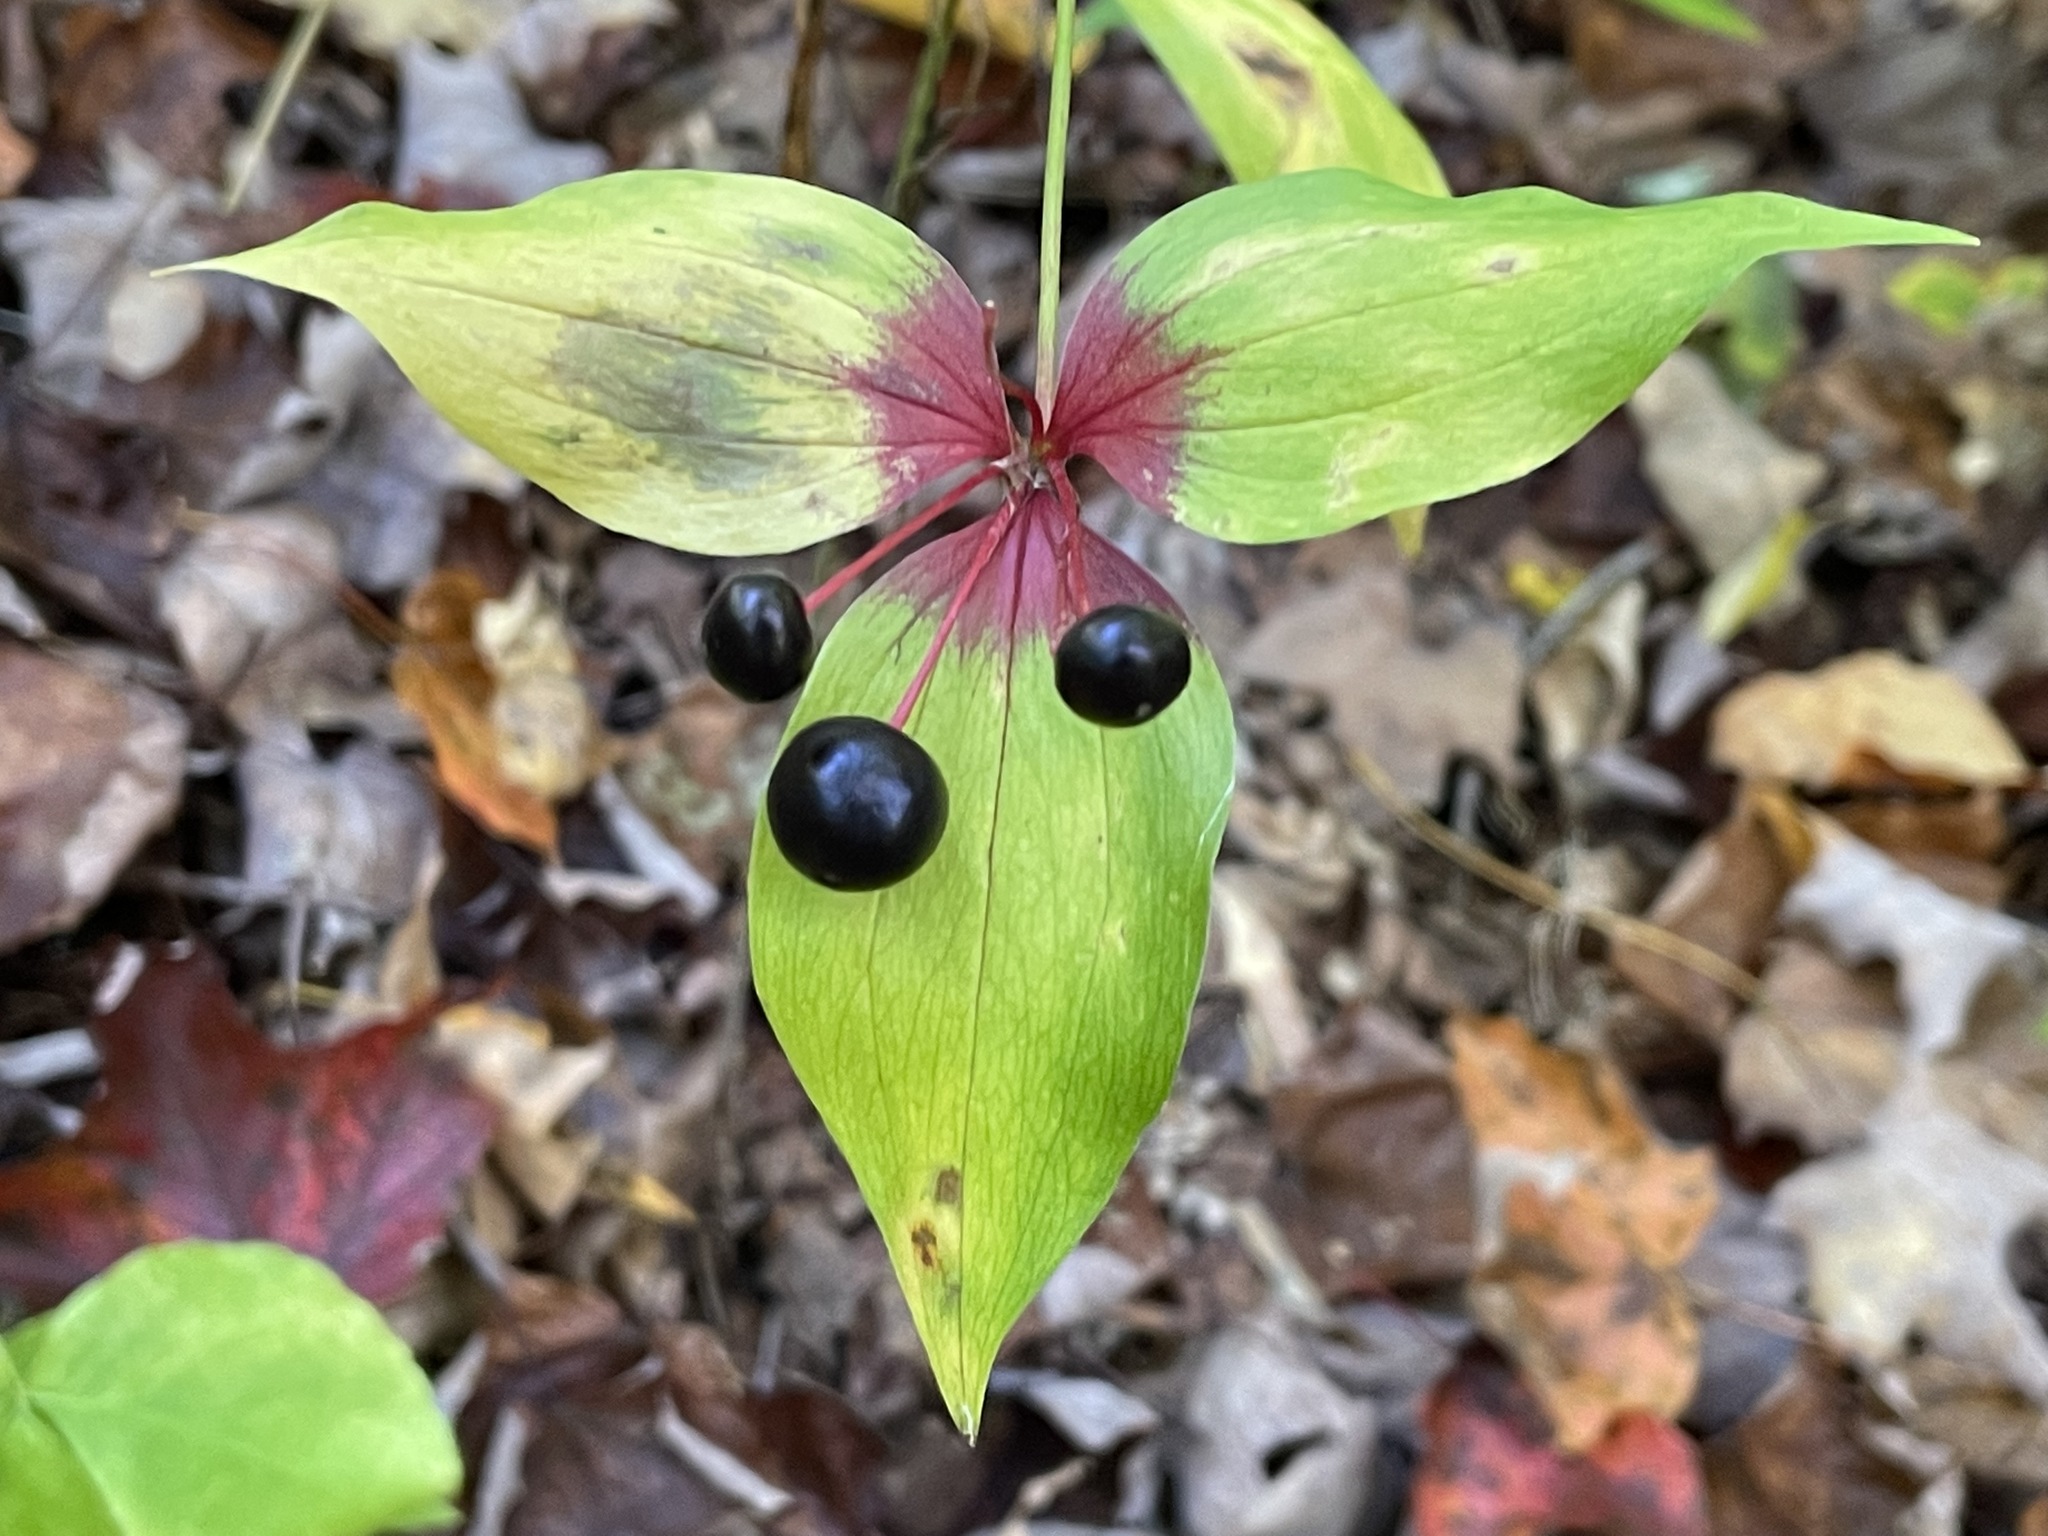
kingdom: Plantae
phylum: Tracheophyta
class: Liliopsida
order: Liliales
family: Liliaceae
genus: Medeola
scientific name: Medeola virginiana
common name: Indian cucumber-root
